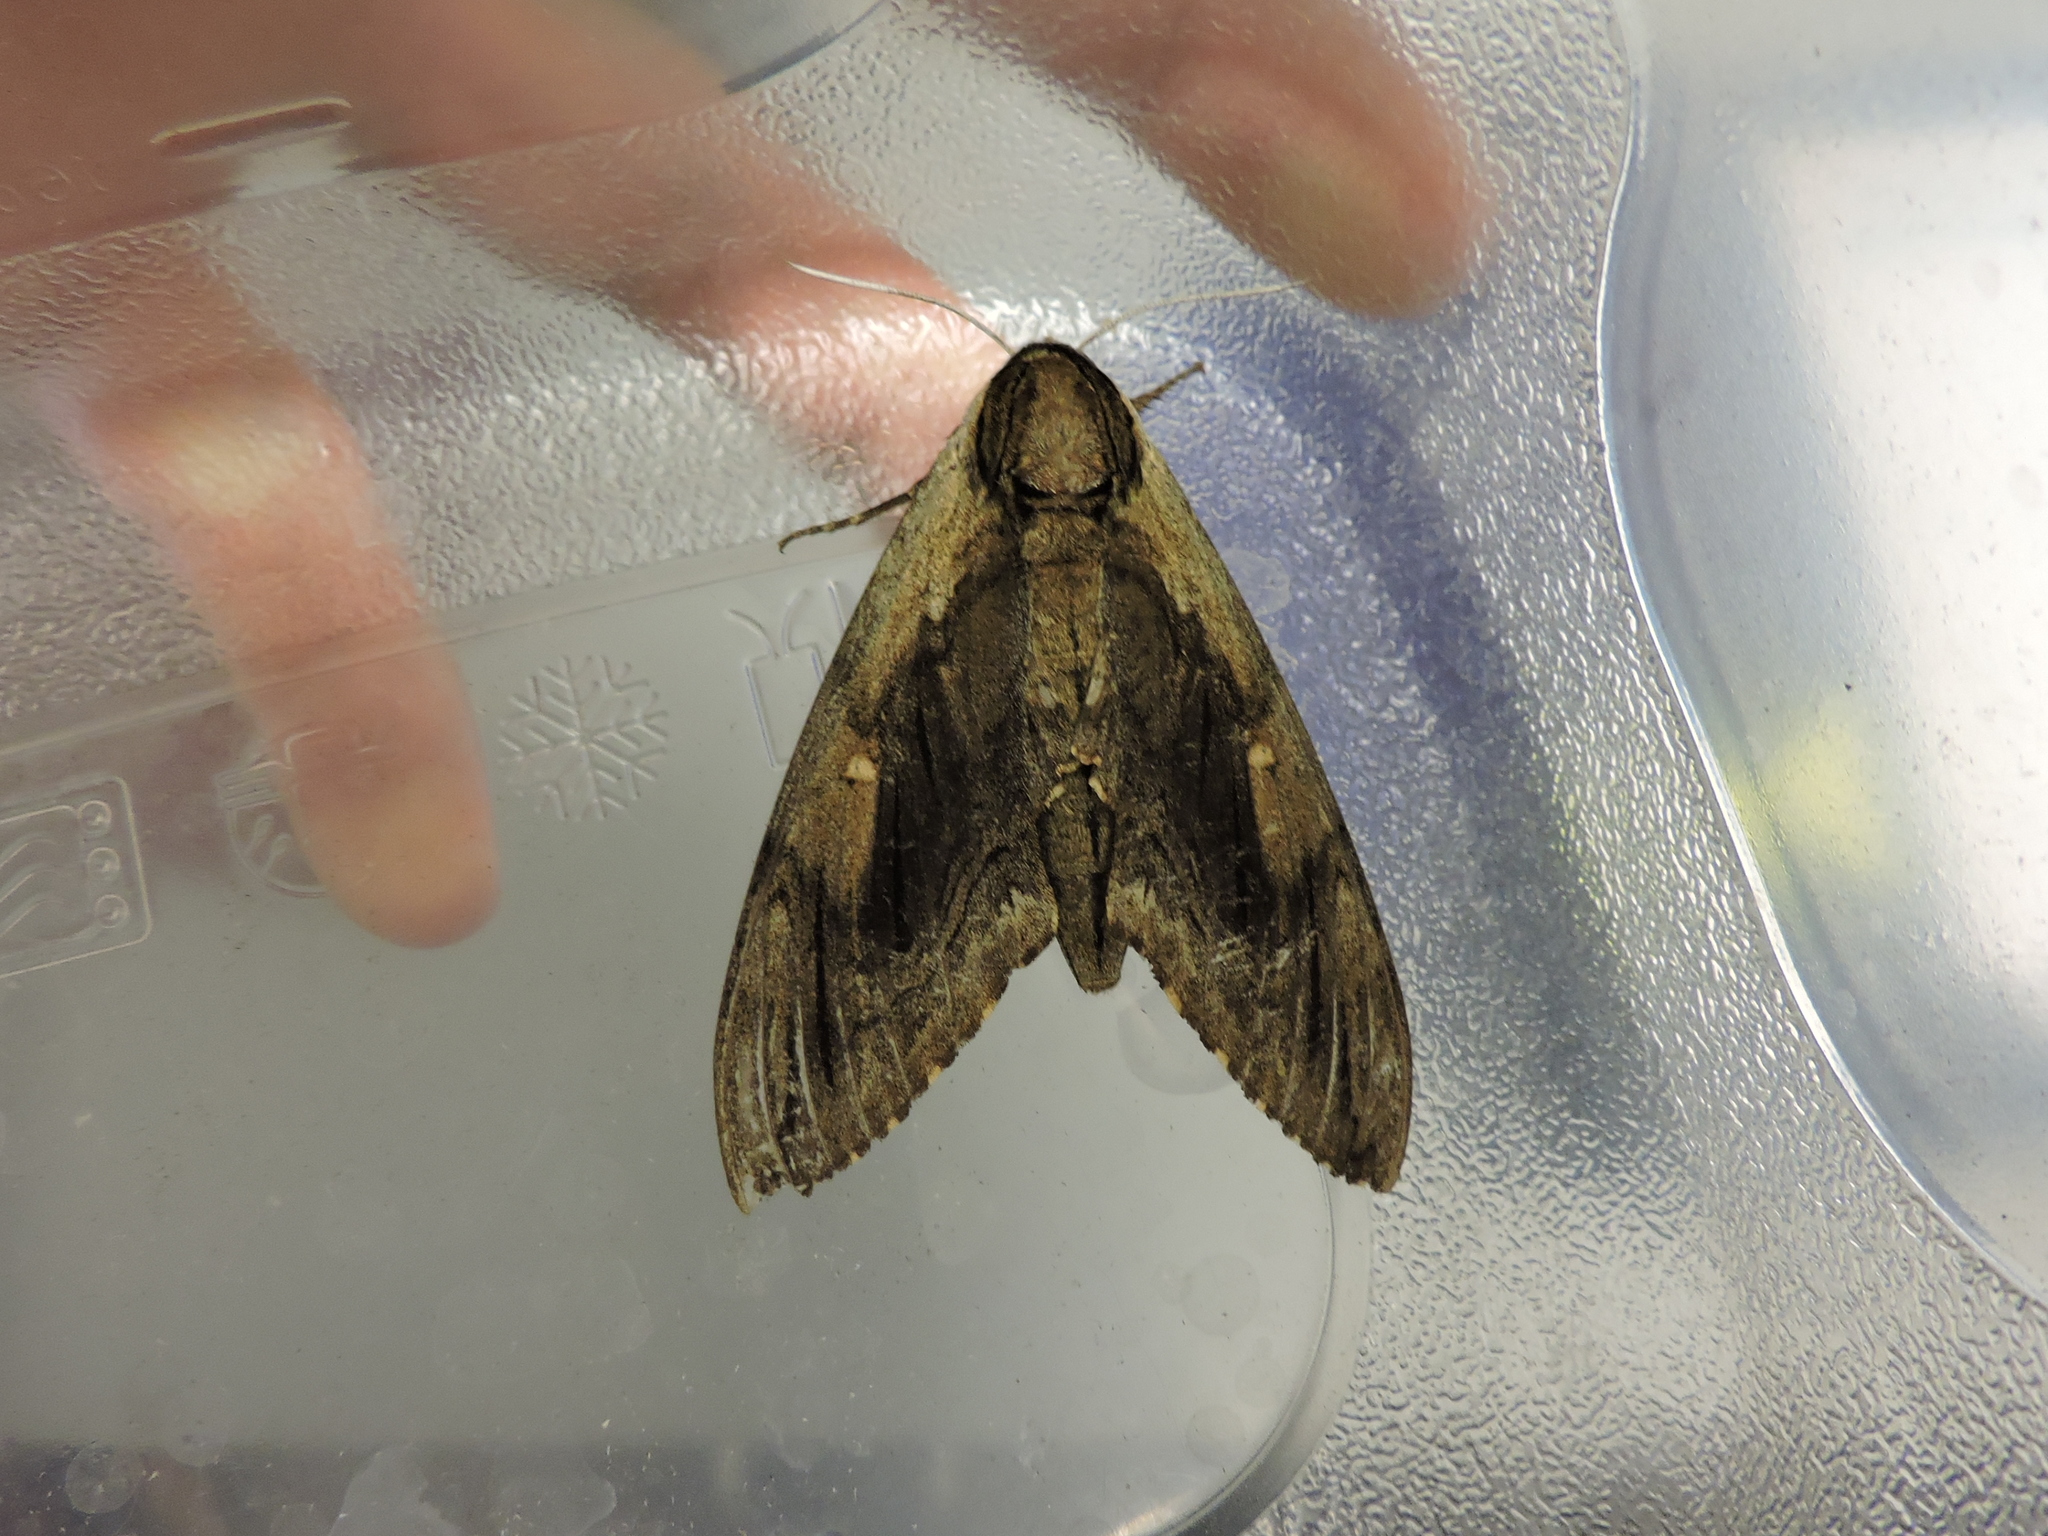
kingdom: Animalia
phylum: Arthropoda
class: Insecta
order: Lepidoptera
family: Sphingidae
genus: Ceratomia
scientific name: Ceratomia amyntor
